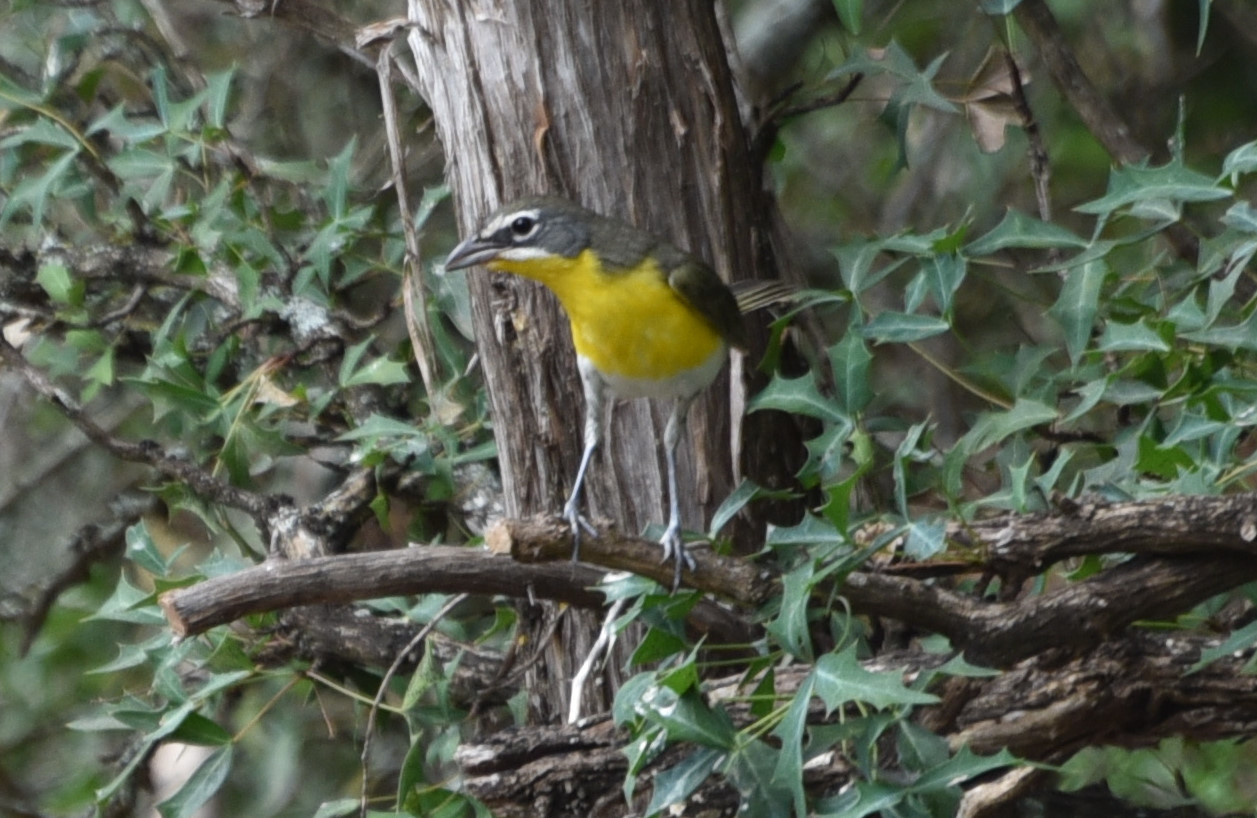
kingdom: Animalia
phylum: Chordata
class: Aves
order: Passeriformes
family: Parulidae
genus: Icteria
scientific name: Icteria virens
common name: Yellow-breasted chat
